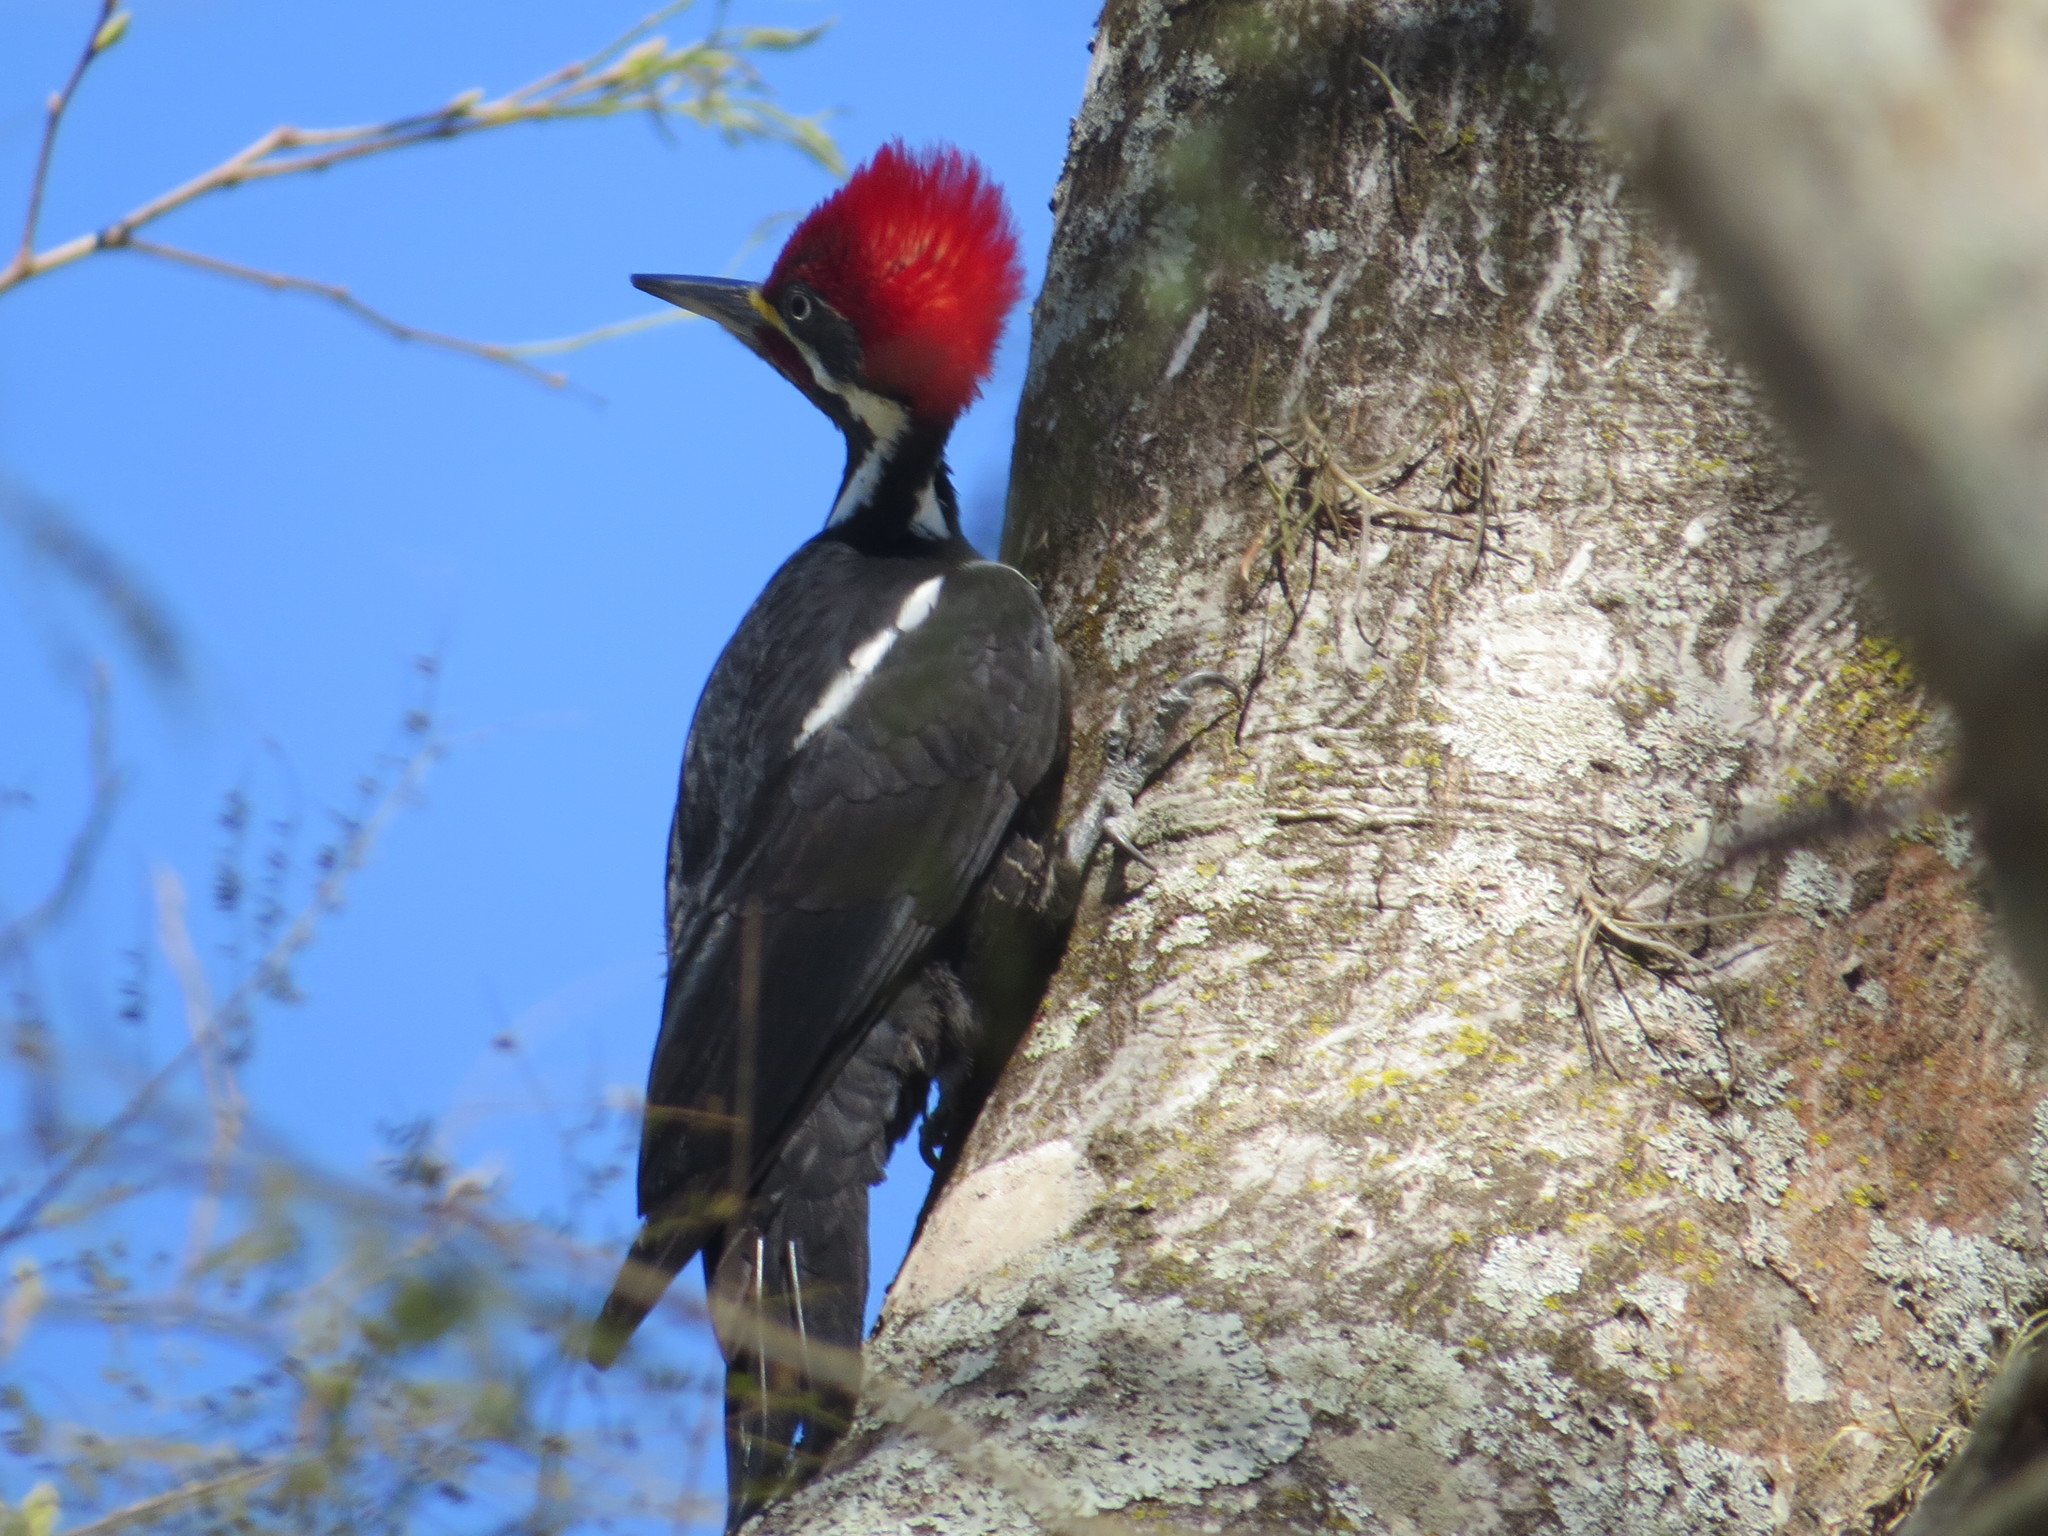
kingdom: Animalia
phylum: Chordata
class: Aves
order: Piciformes
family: Picidae
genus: Dryocopus
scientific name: Dryocopus schulzii
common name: Black-bodied woodpecker
